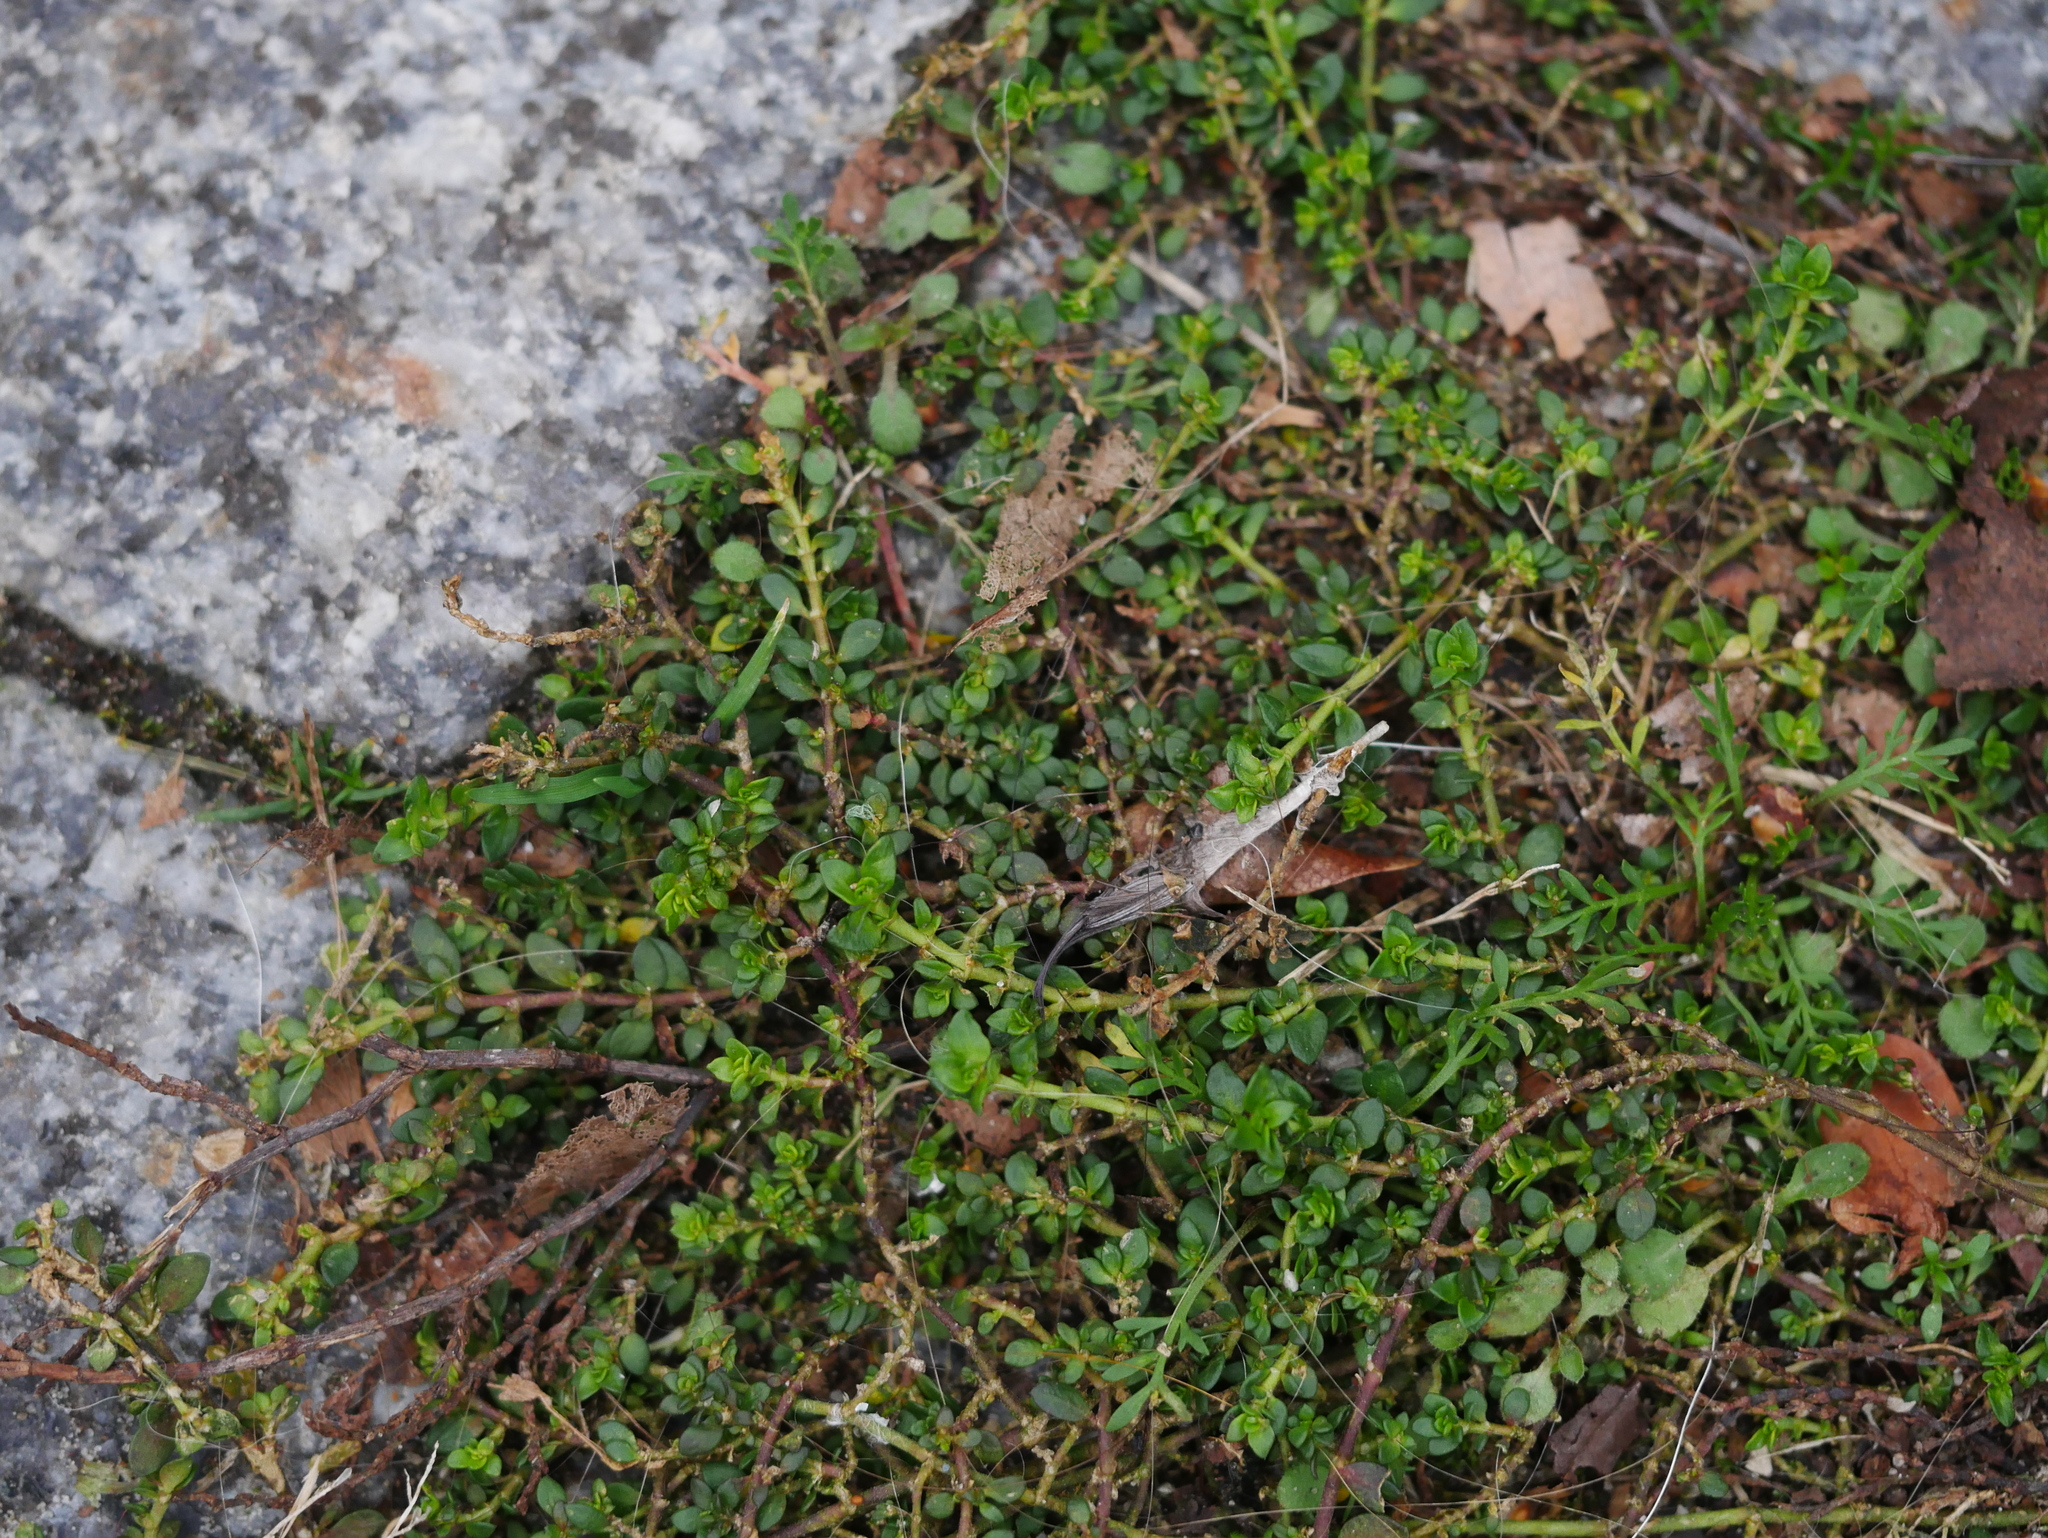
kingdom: Plantae
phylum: Tracheophyta
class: Magnoliopsida
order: Caryophyllales
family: Caryophyllaceae
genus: Herniaria
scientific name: Herniaria glabra
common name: Smooth rupturewort
